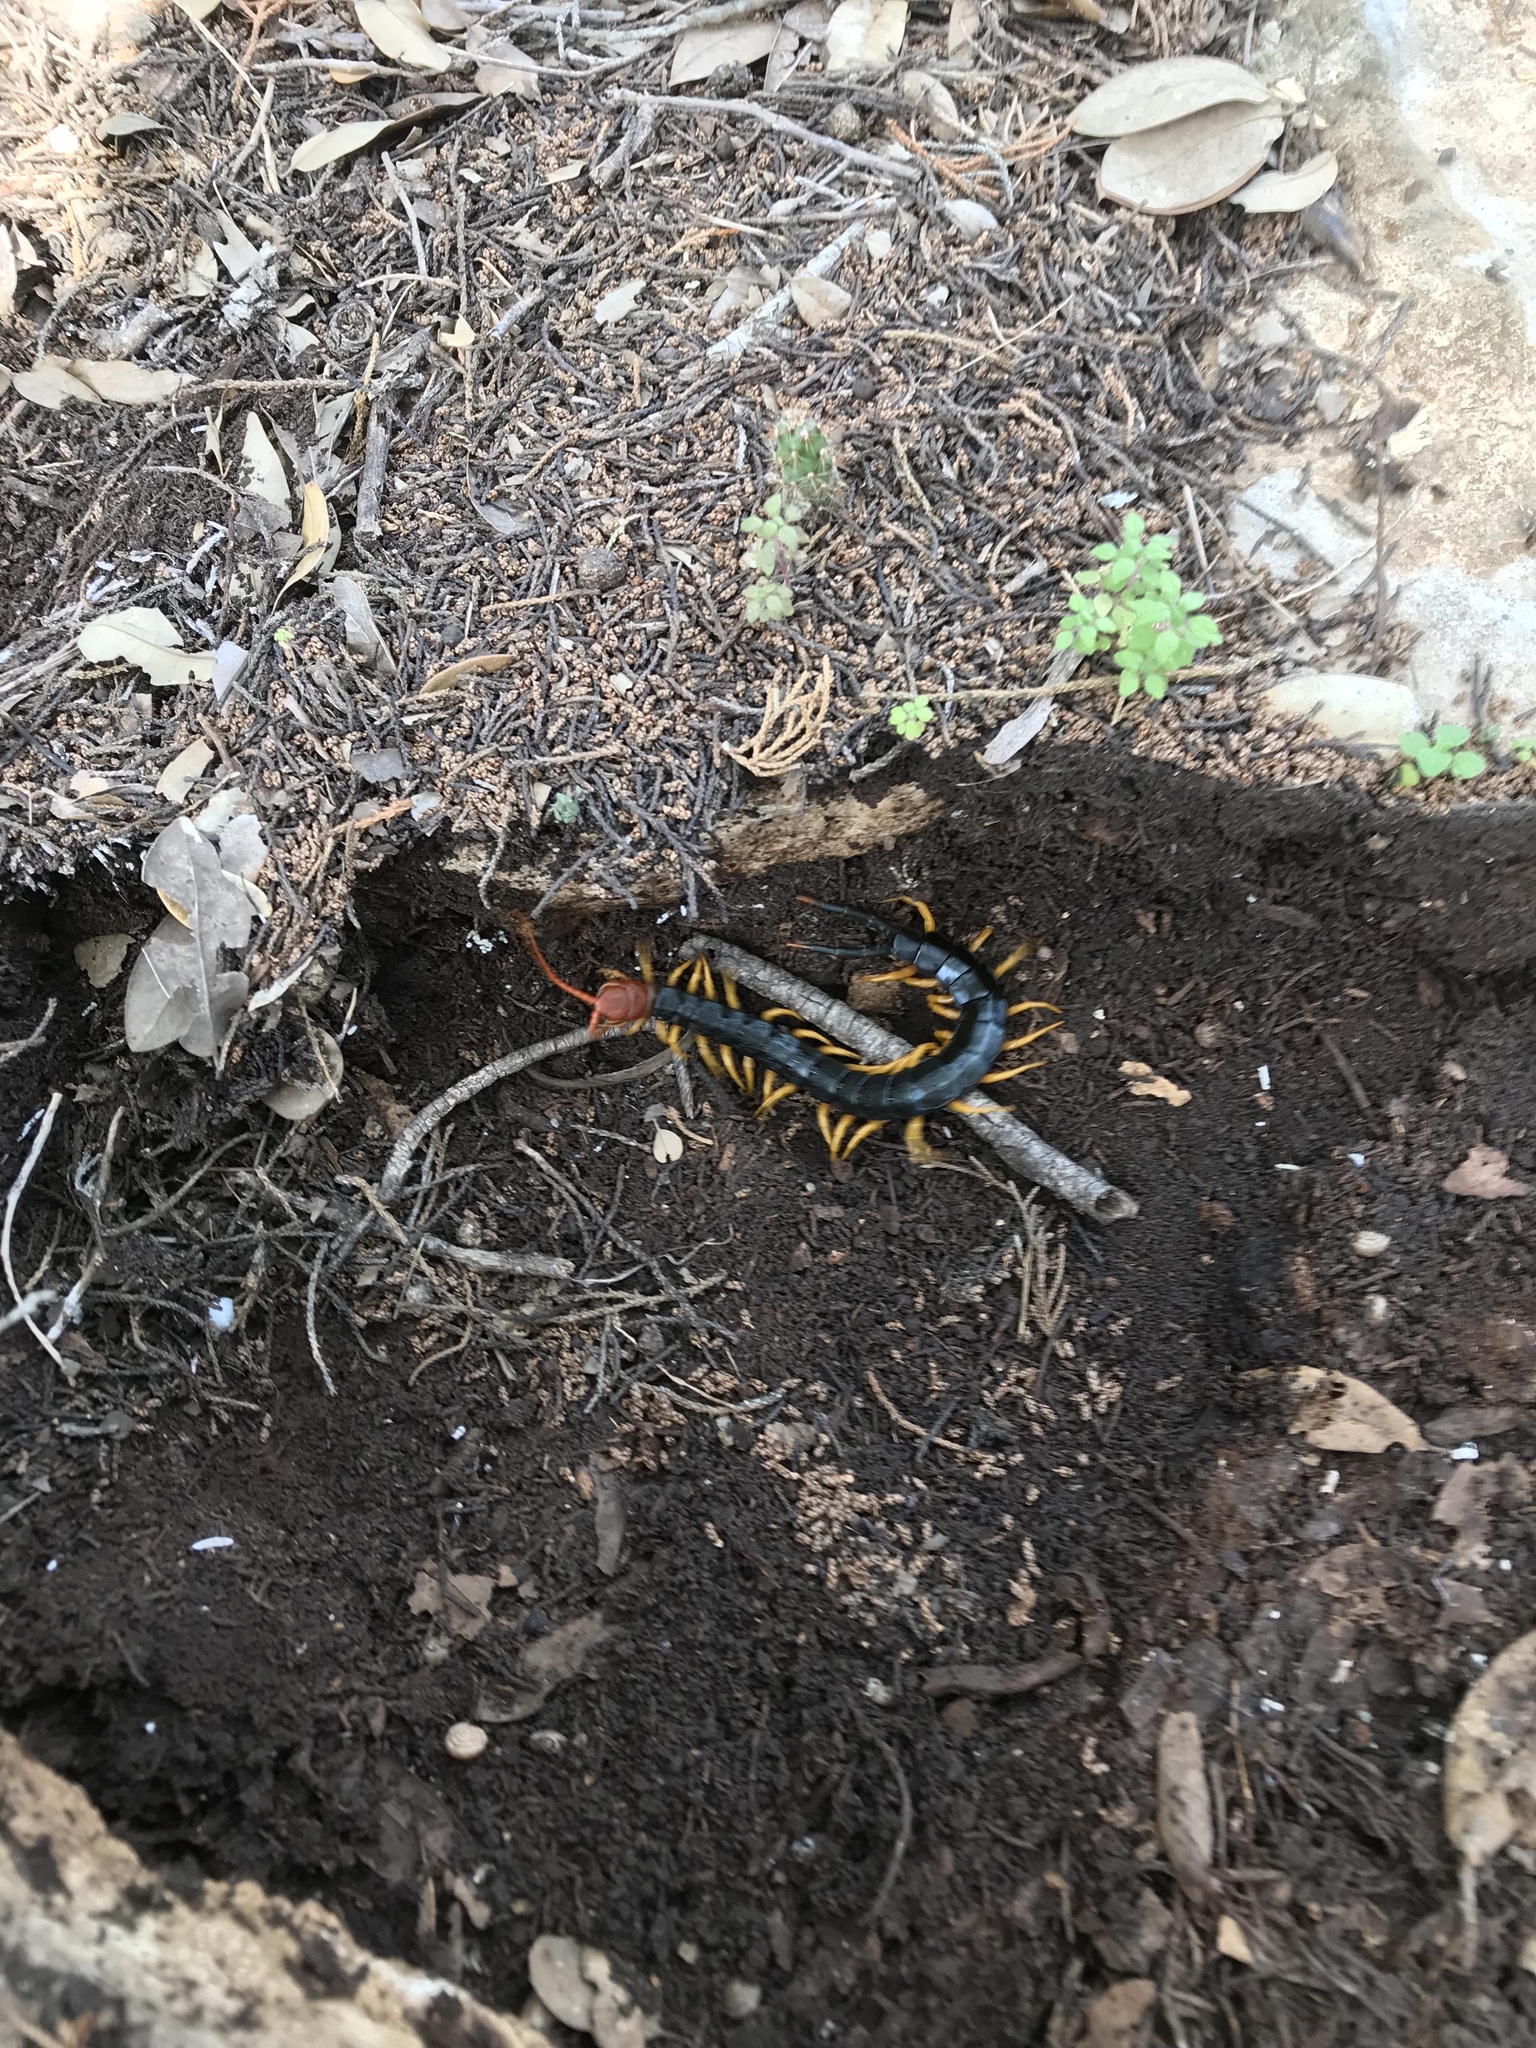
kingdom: Animalia
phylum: Arthropoda
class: Chilopoda
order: Scolopendromorpha
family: Scolopendridae
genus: Scolopendra
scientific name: Scolopendra heros
